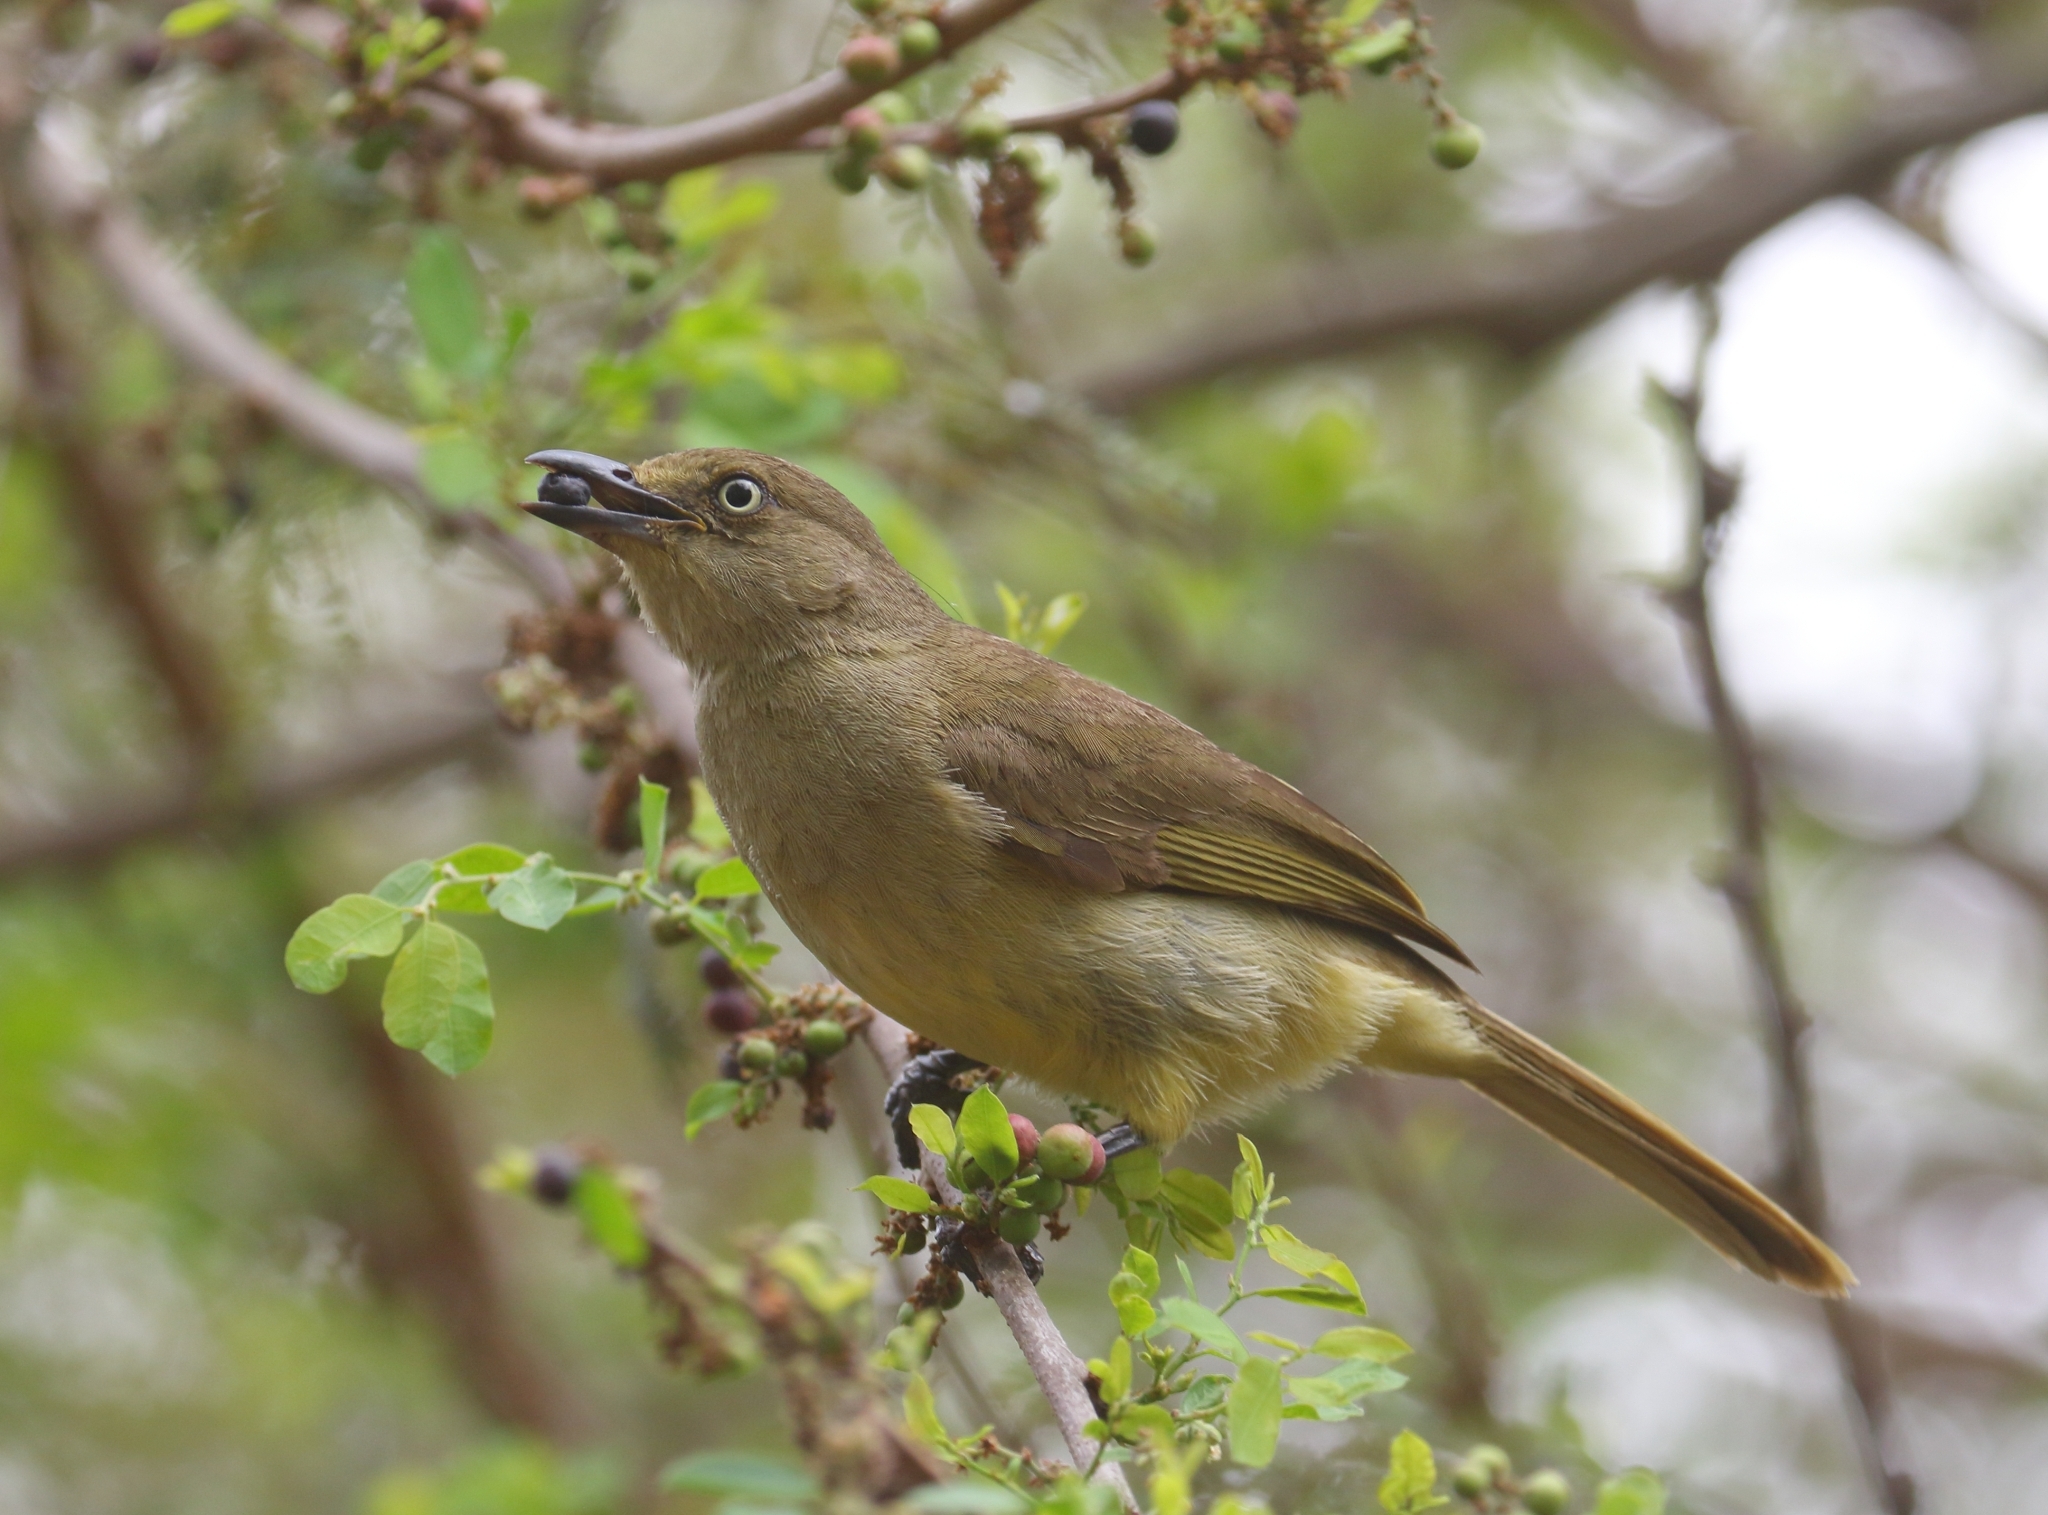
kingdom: Animalia
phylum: Chordata
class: Aves
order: Passeriformes
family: Pycnonotidae
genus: Andropadus
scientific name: Andropadus importunus
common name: Sombre greenbul
